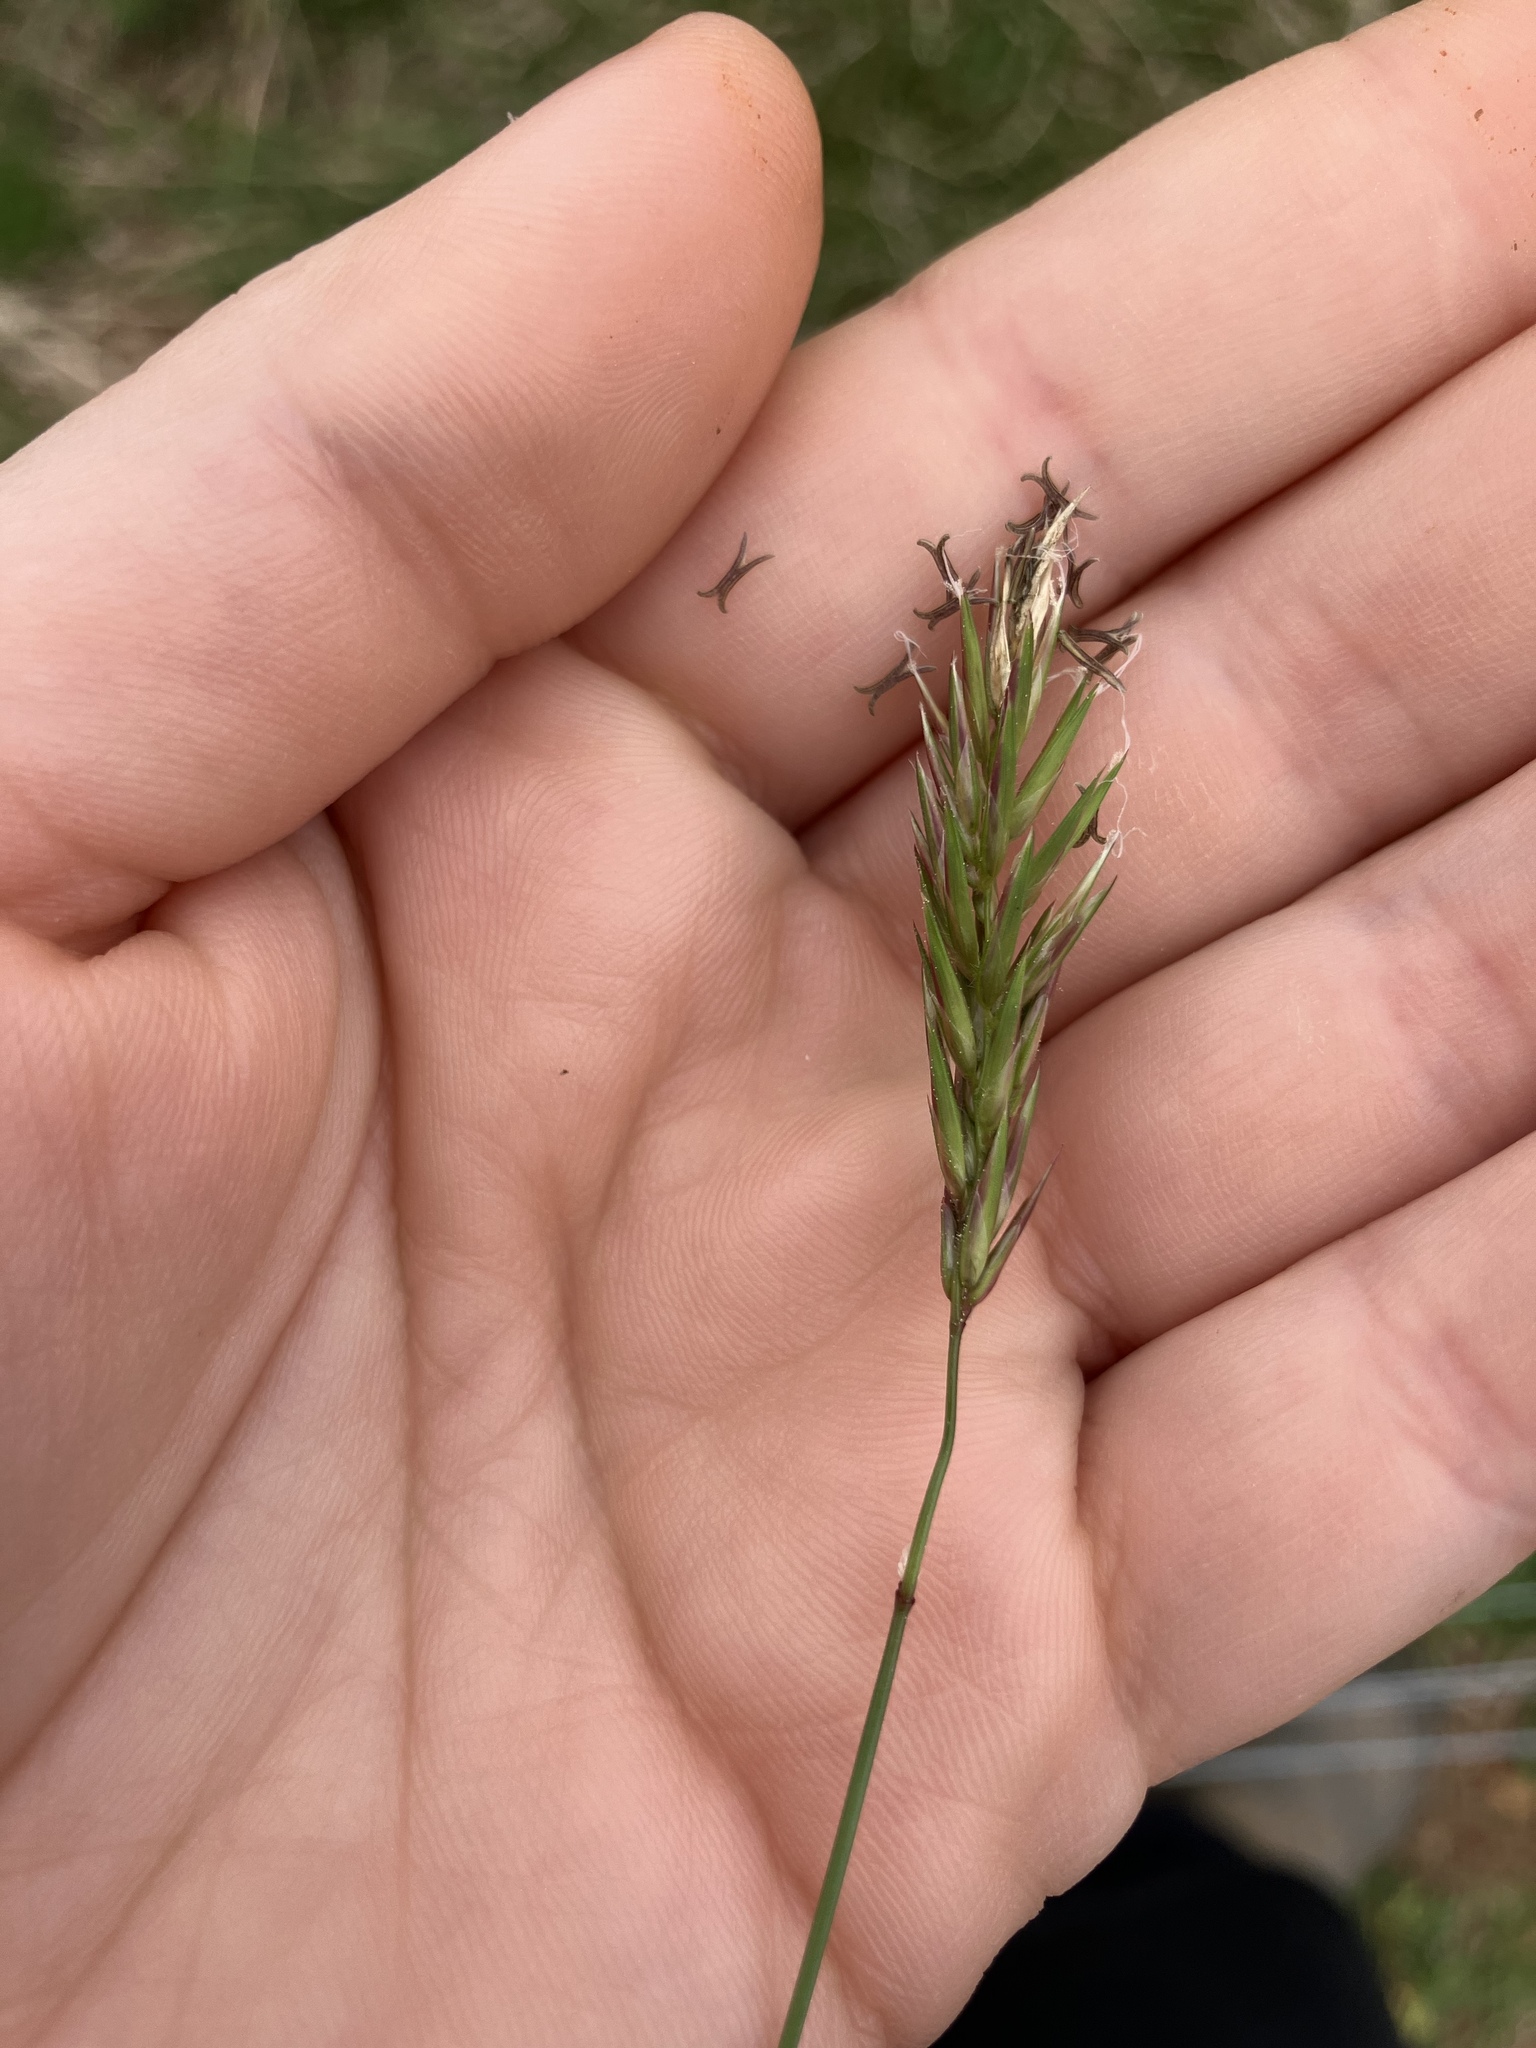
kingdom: Plantae
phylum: Tracheophyta
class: Liliopsida
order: Poales
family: Poaceae
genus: Anthoxanthum
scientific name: Anthoxanthum odoratum
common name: Sweet vernalgrass
